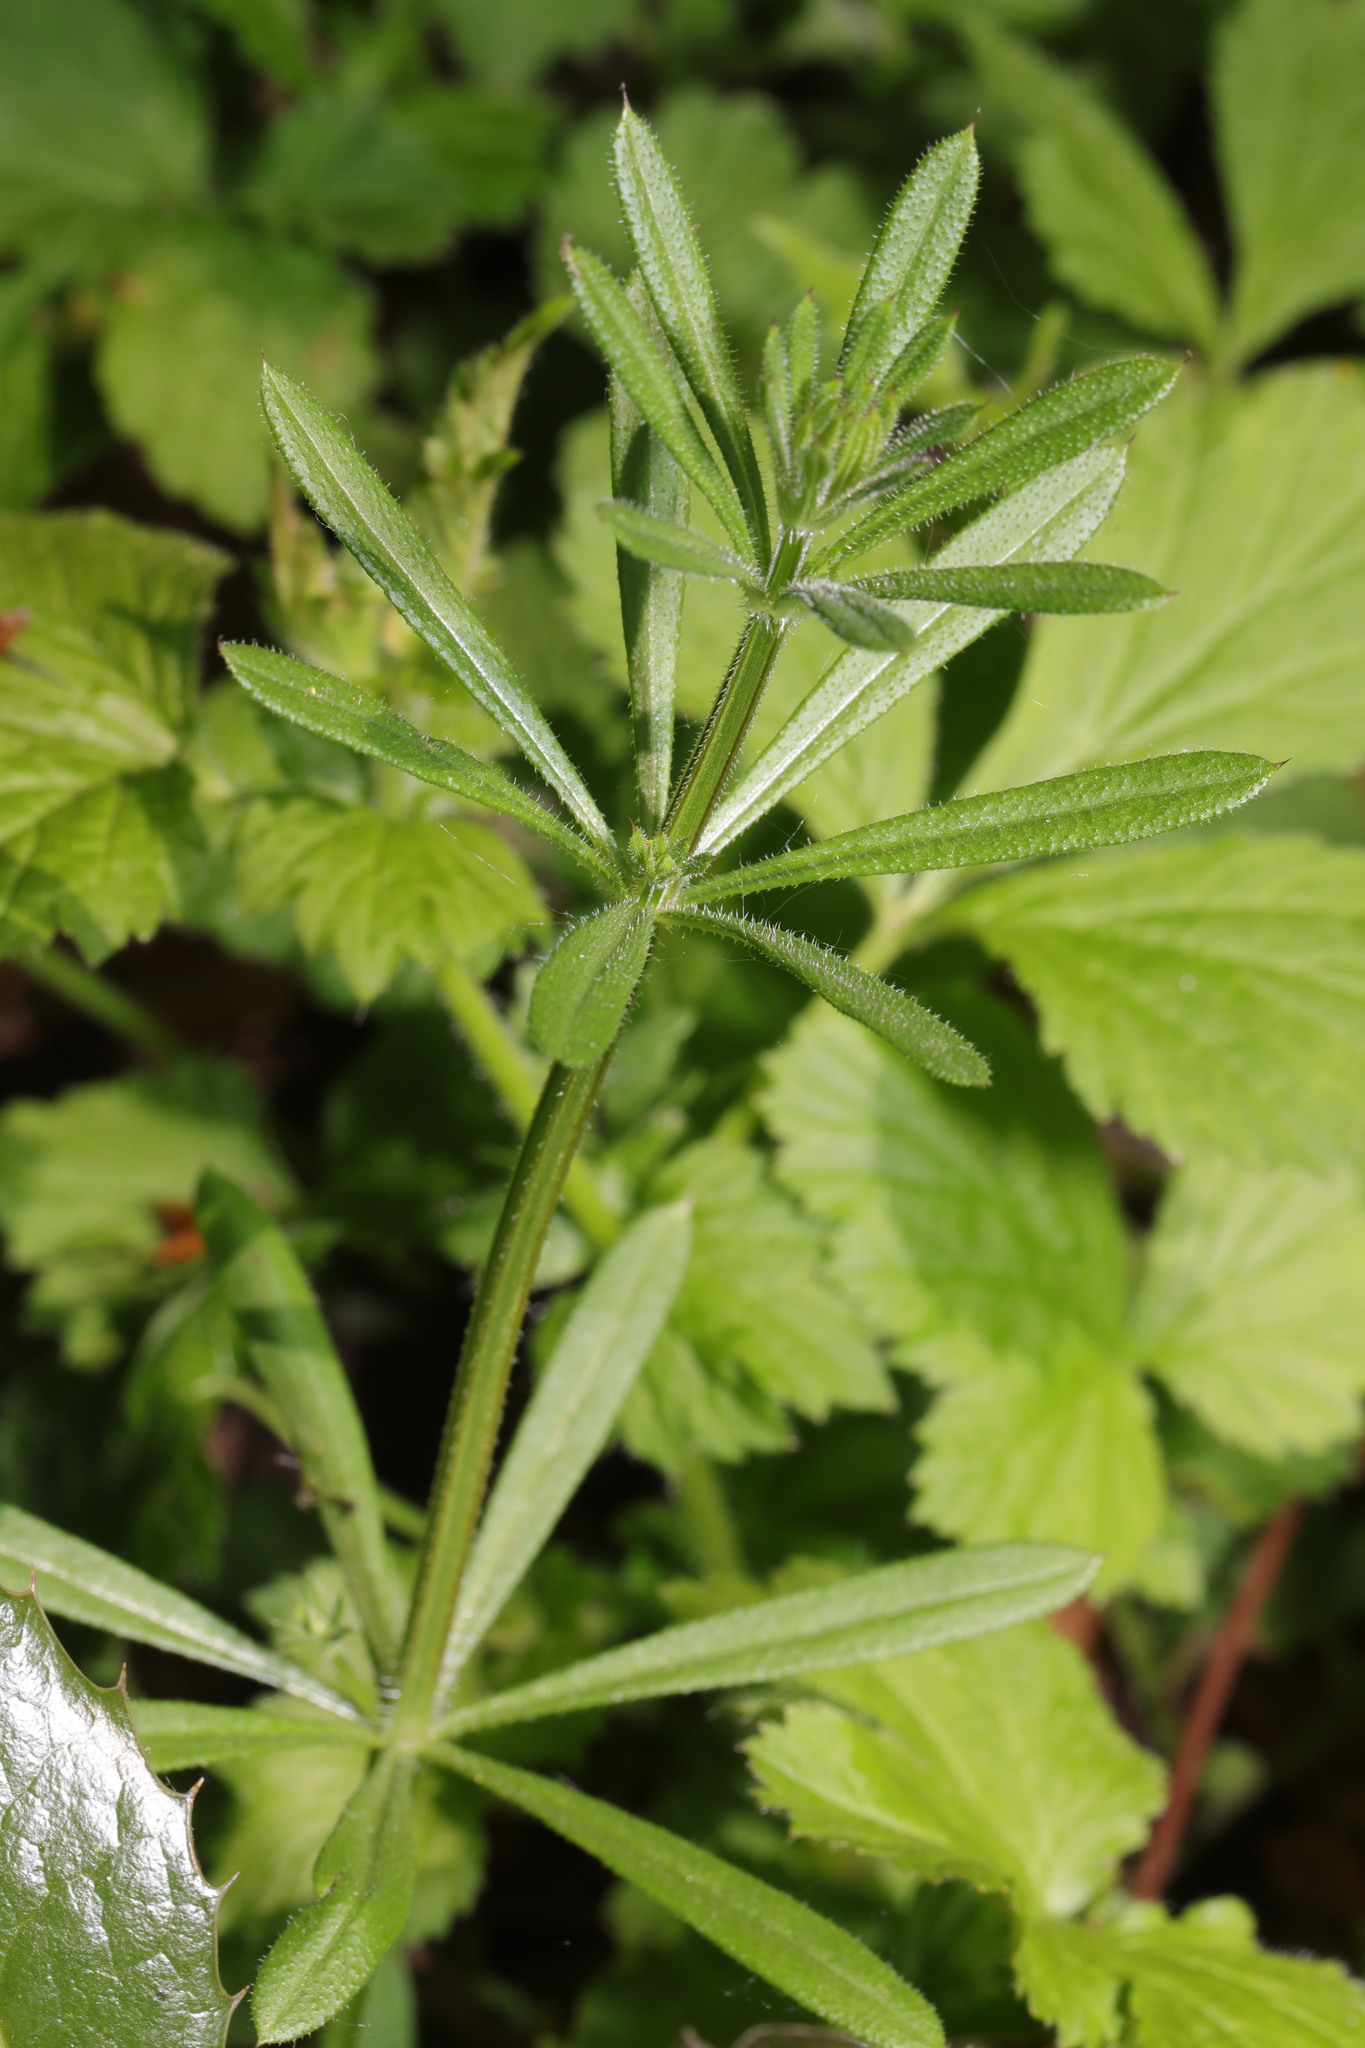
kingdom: Plantae
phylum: Tracheophyta
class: Magnoliopsida
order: Gentianales
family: Rubiaceae
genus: Galium
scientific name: Galium aparine
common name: Cleavers
